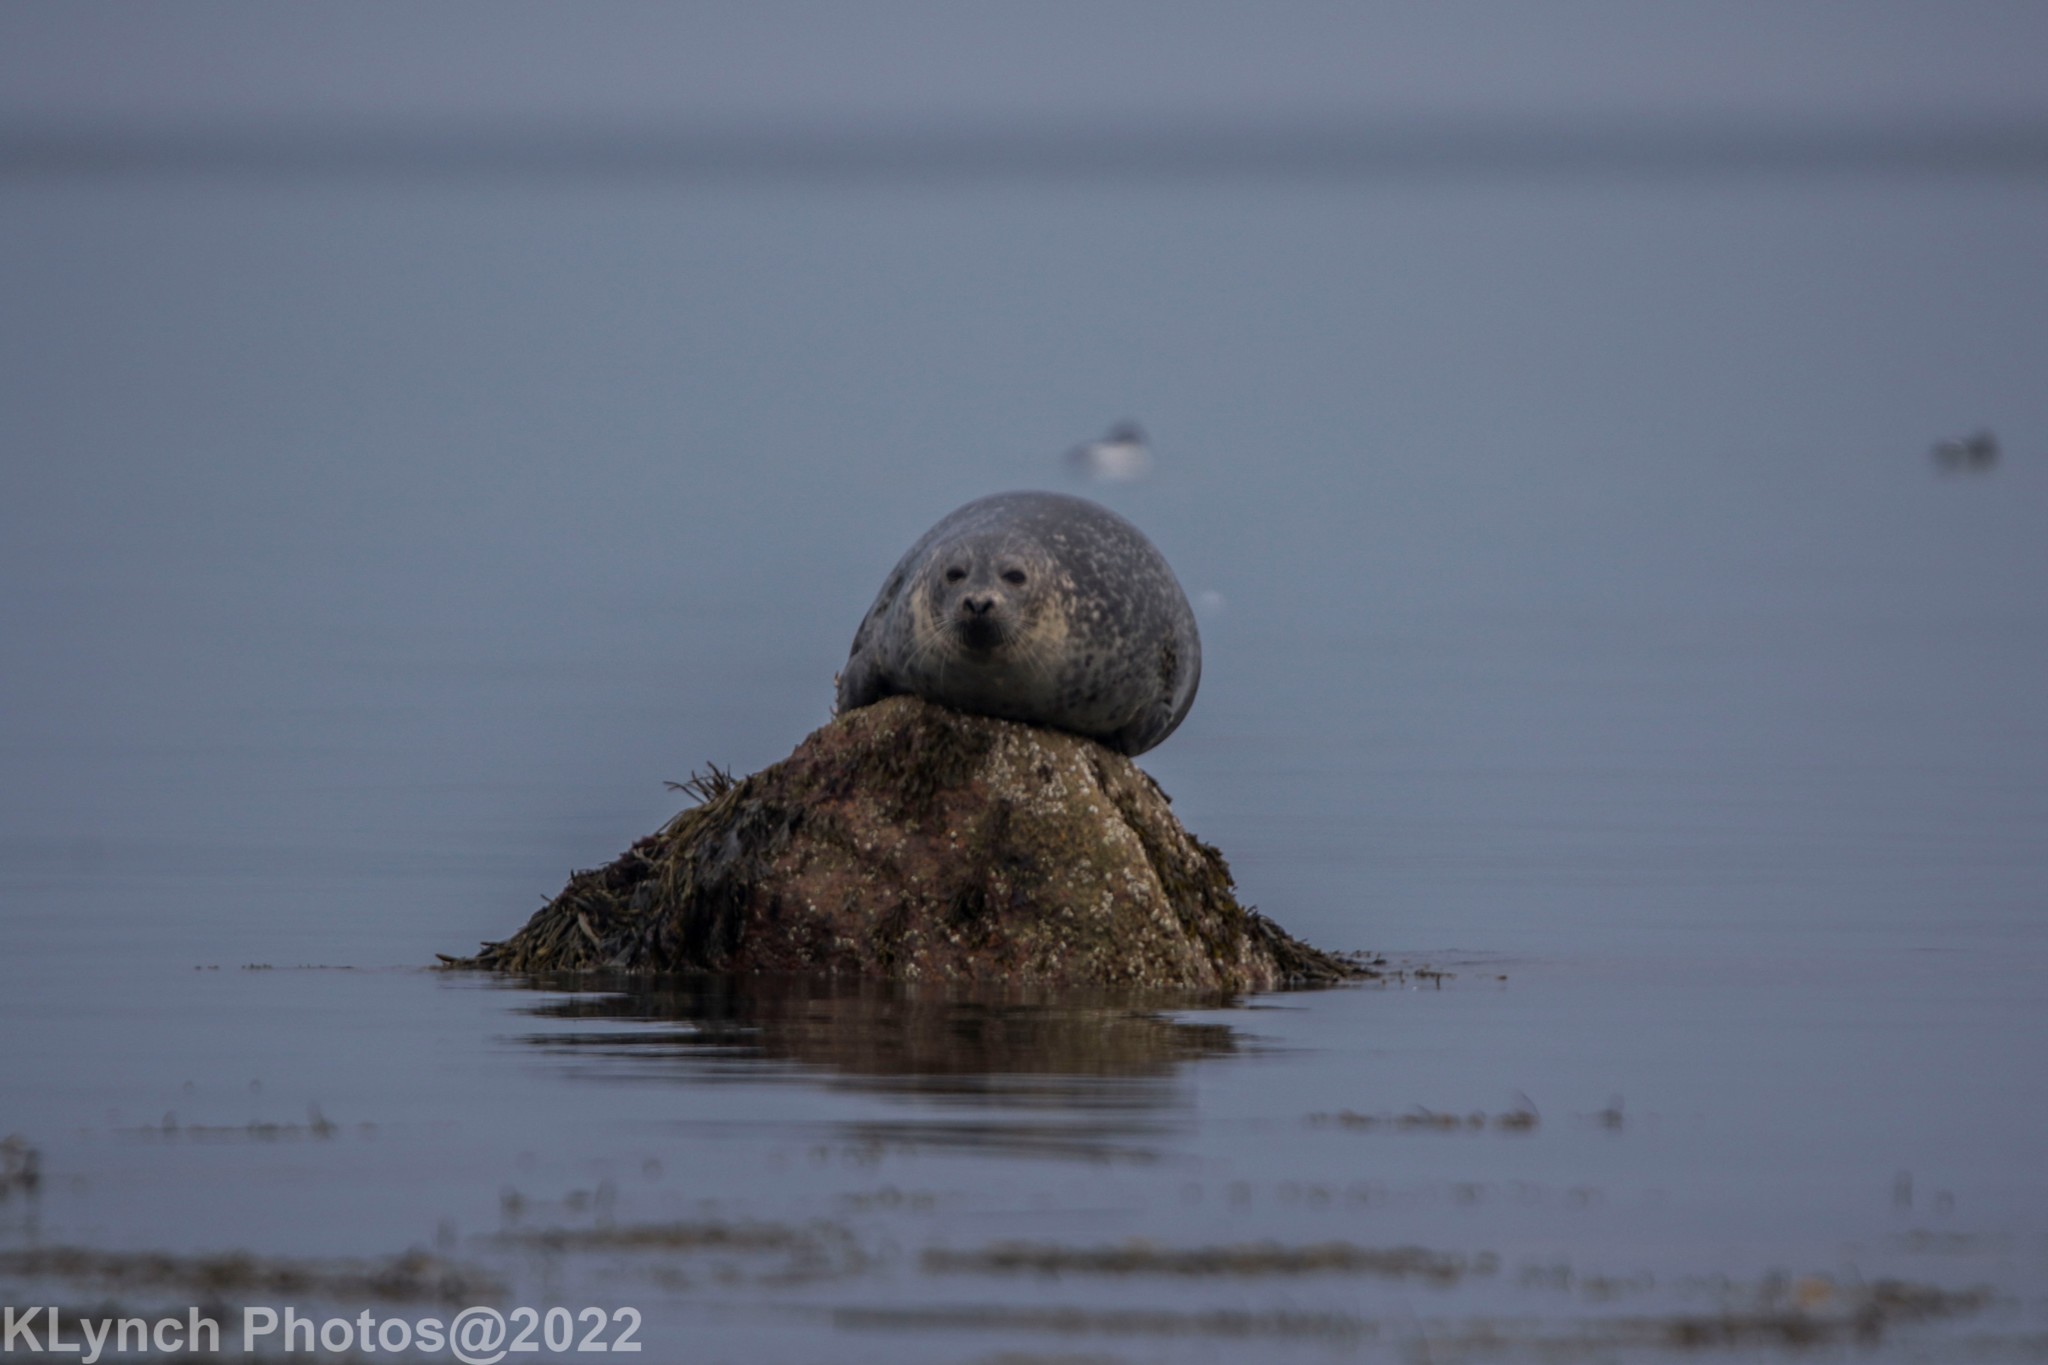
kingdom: Animalia
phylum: Chordata
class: Mammalia
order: Carnivora
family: Phocidae
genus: Phoca
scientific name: Phoca vitulina
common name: Harbor seal
